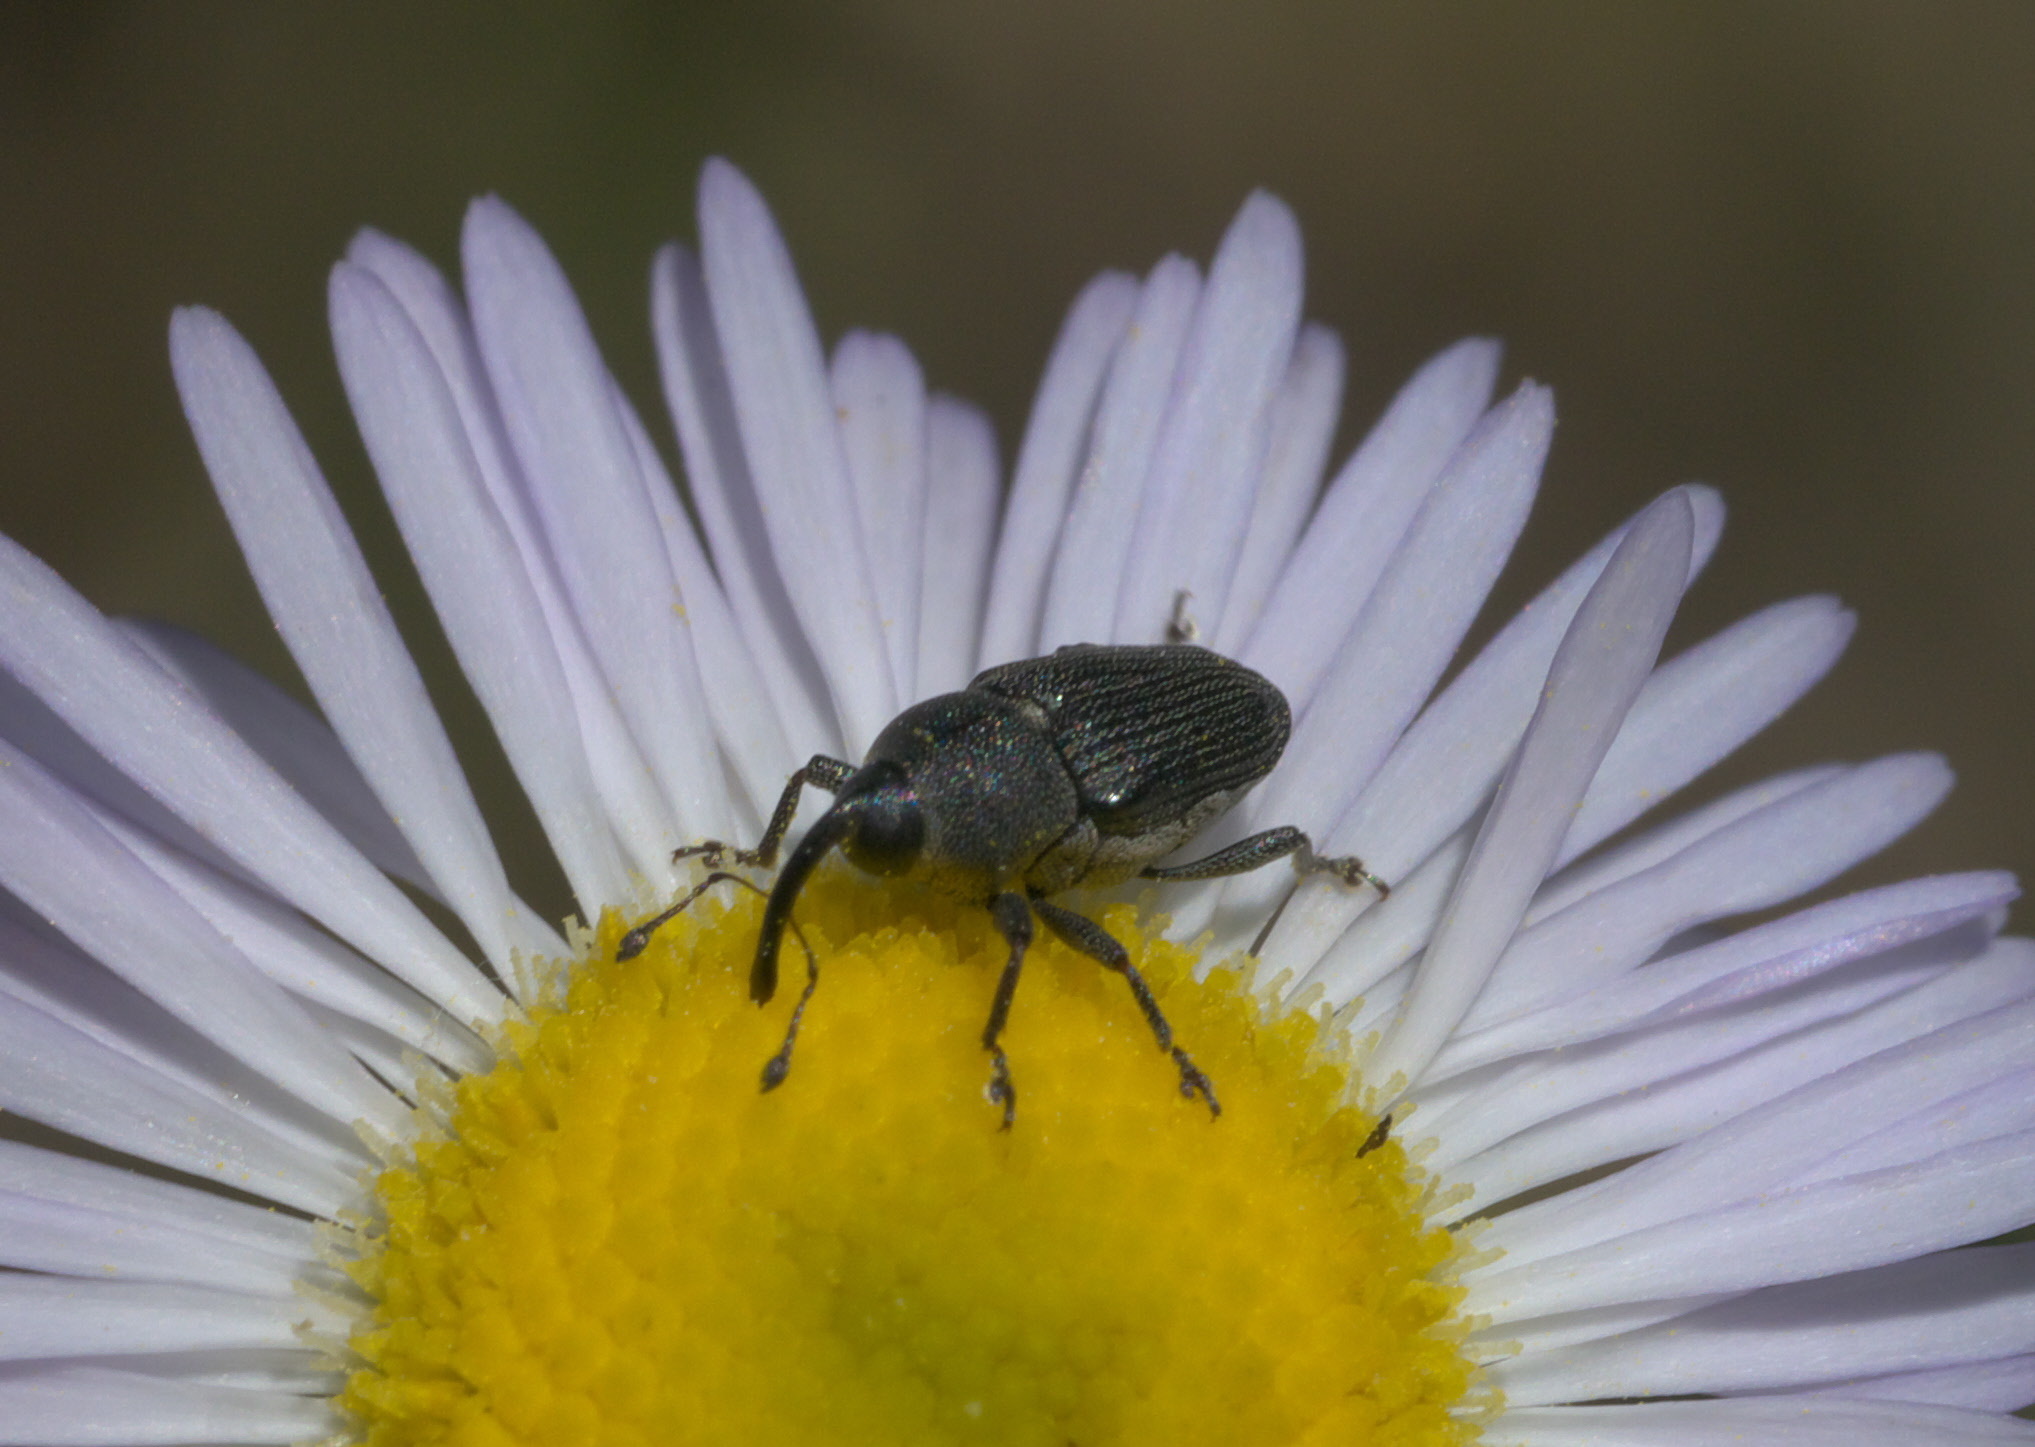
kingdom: Animalia
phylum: Arthropoda
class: Insecta
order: Coleoptera
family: Curculionidae
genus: Odontocorynus
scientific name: Odontocorynus salebrosus
